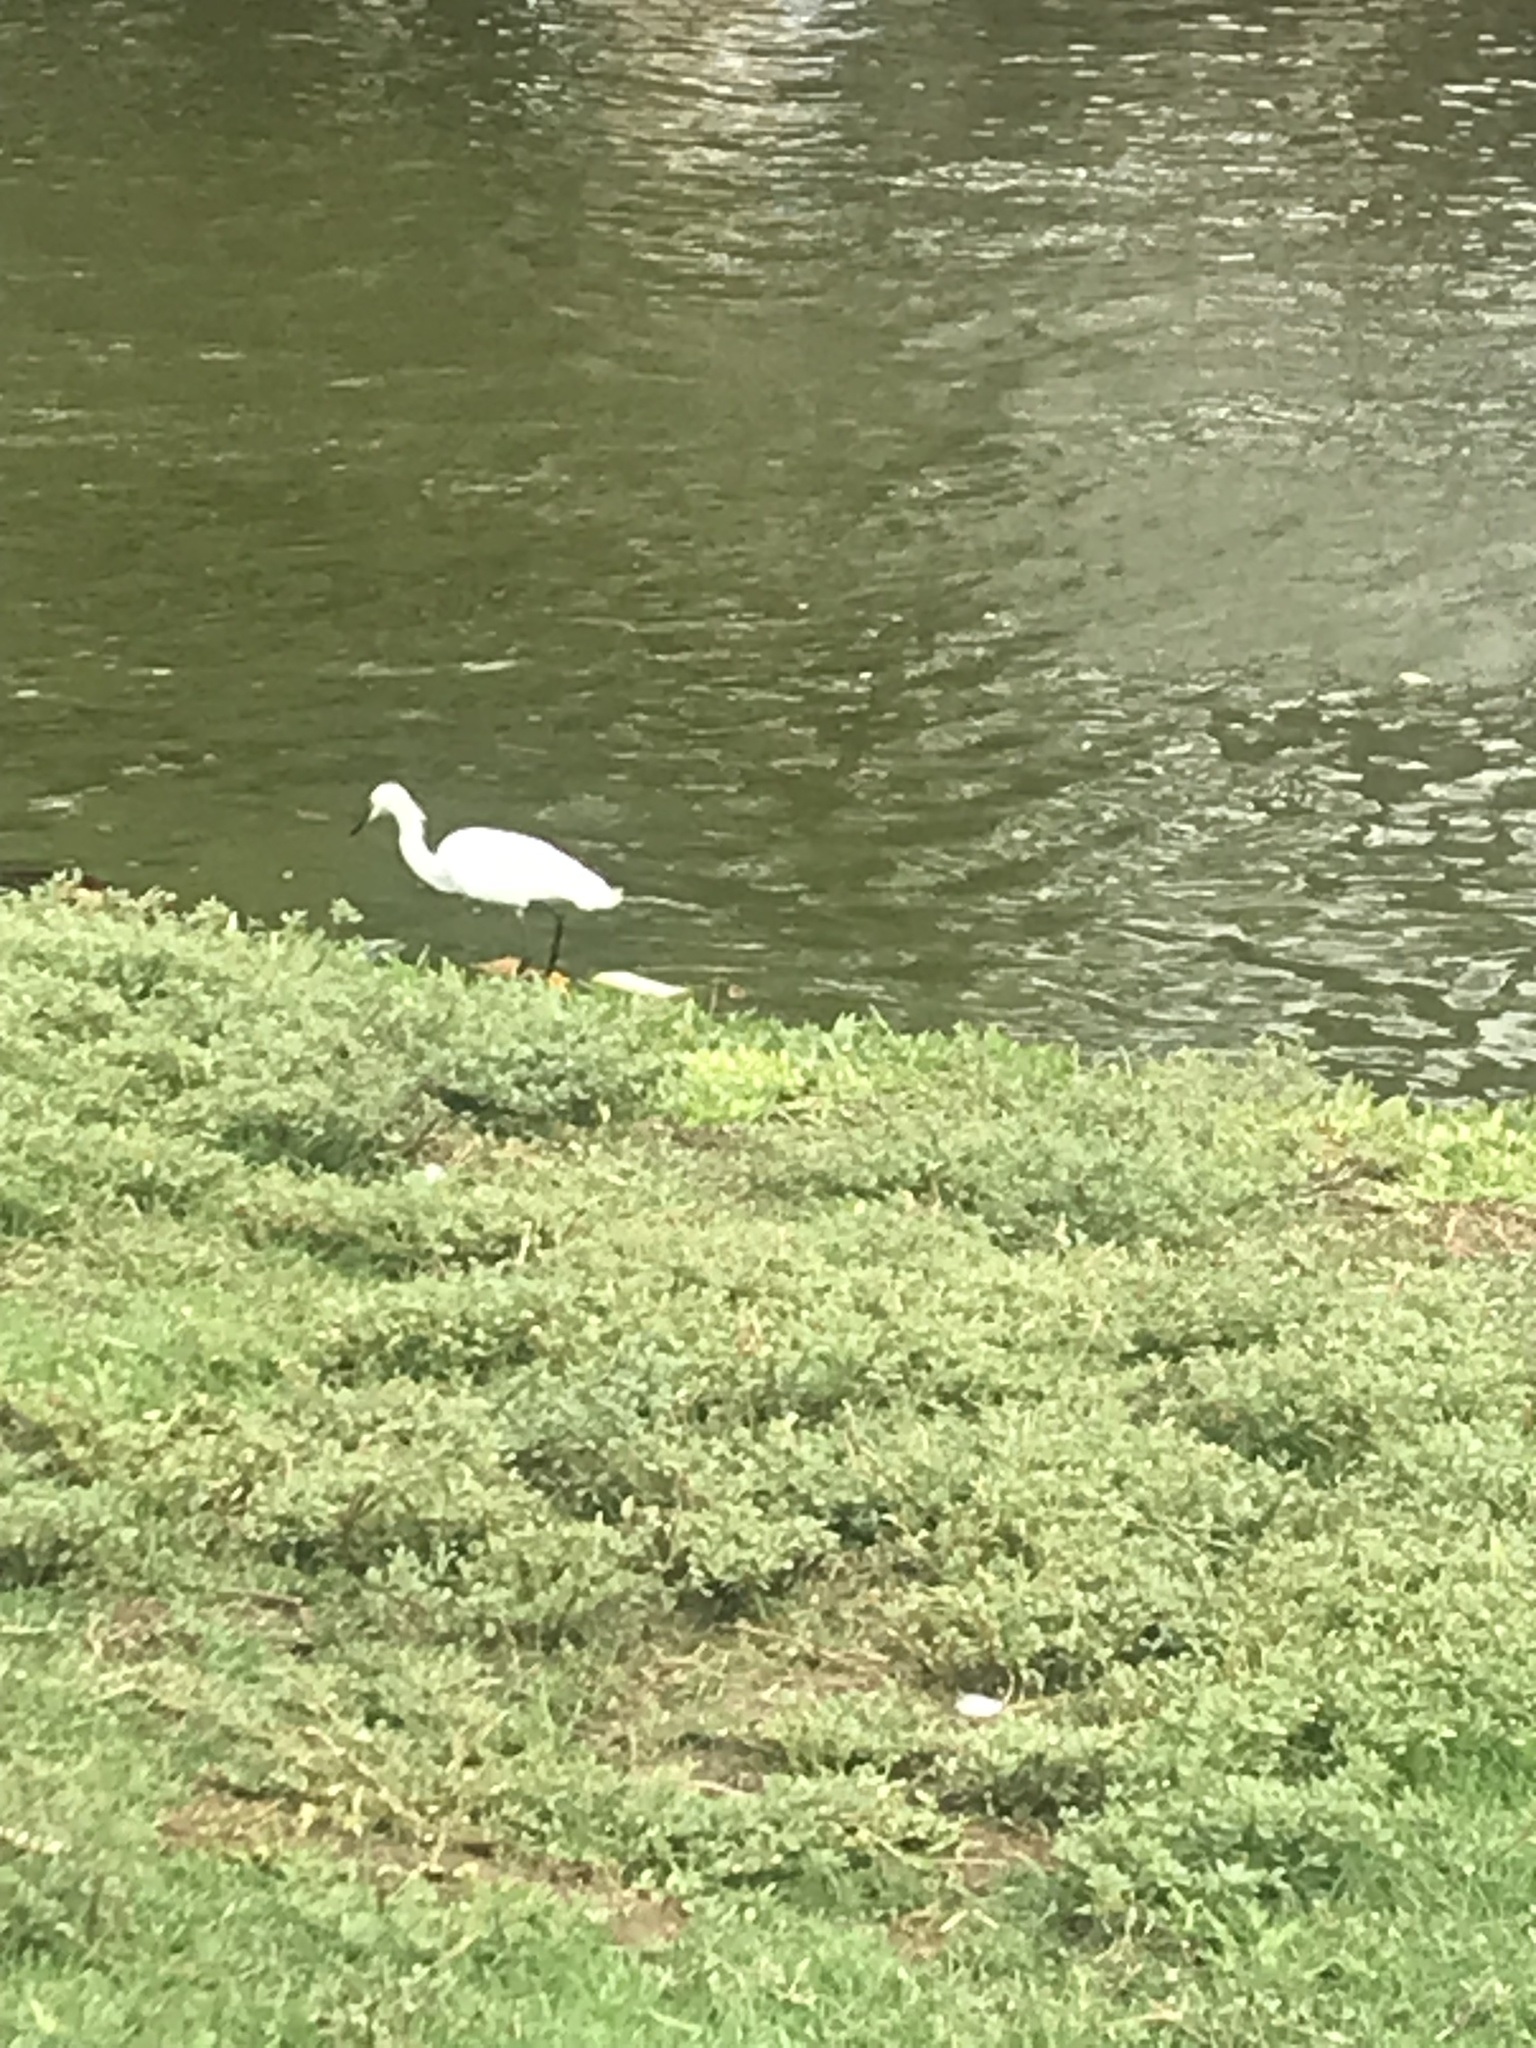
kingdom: Animalia
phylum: Chordata
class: Aves
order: Pelecaniformes
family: Ardeidae
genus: Egretta
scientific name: Egretta thula
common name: Snowy egret
